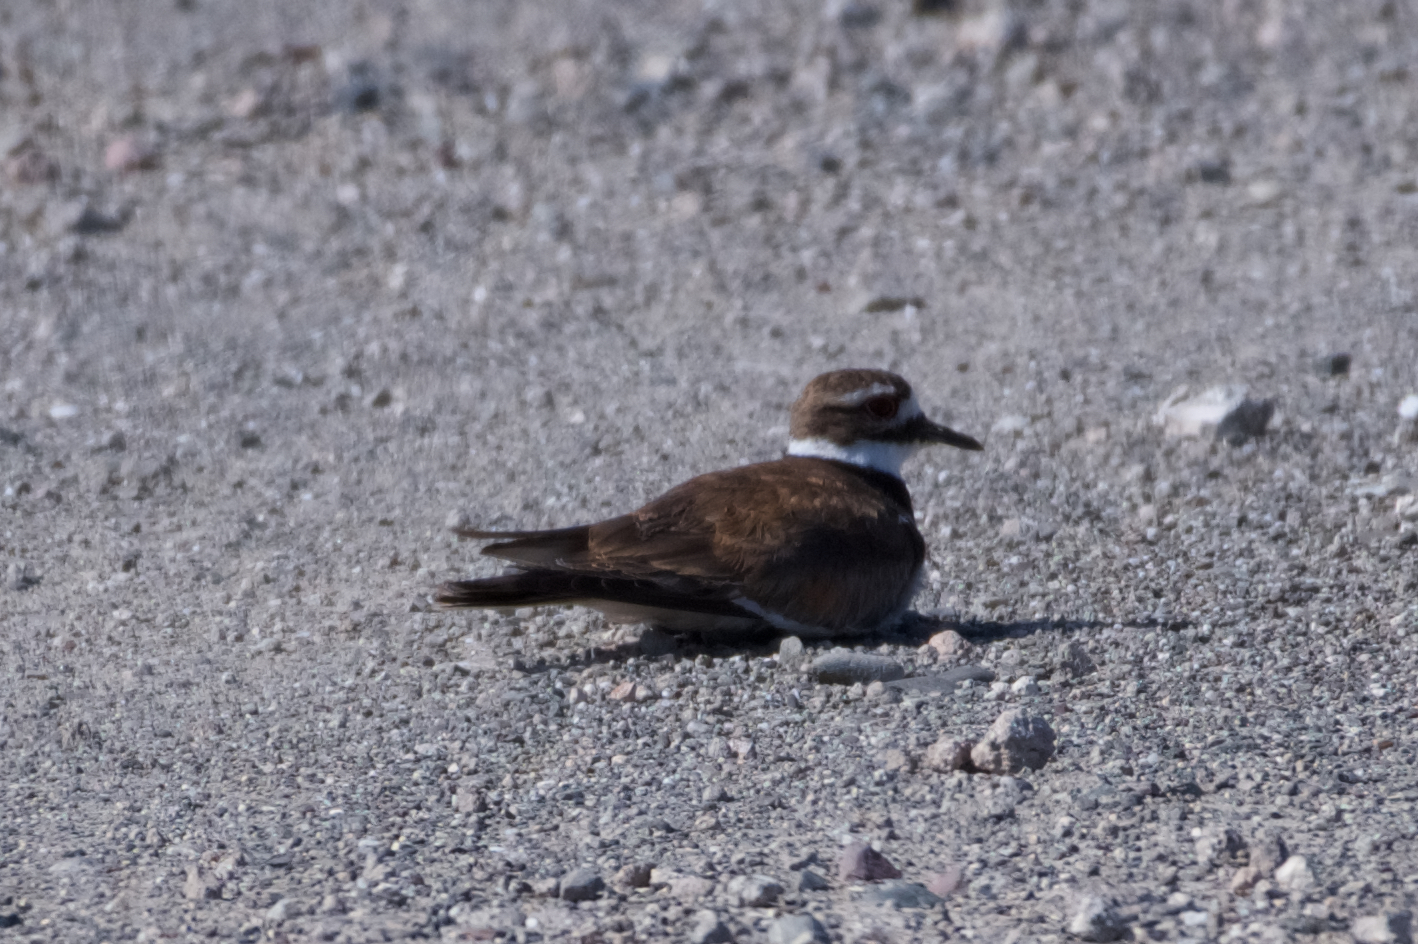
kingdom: Animalia
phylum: Chordata
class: Aves
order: Charadriiformes
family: Charadriidae
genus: Charadrius
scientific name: Charadrius vociferus
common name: Killdeer
